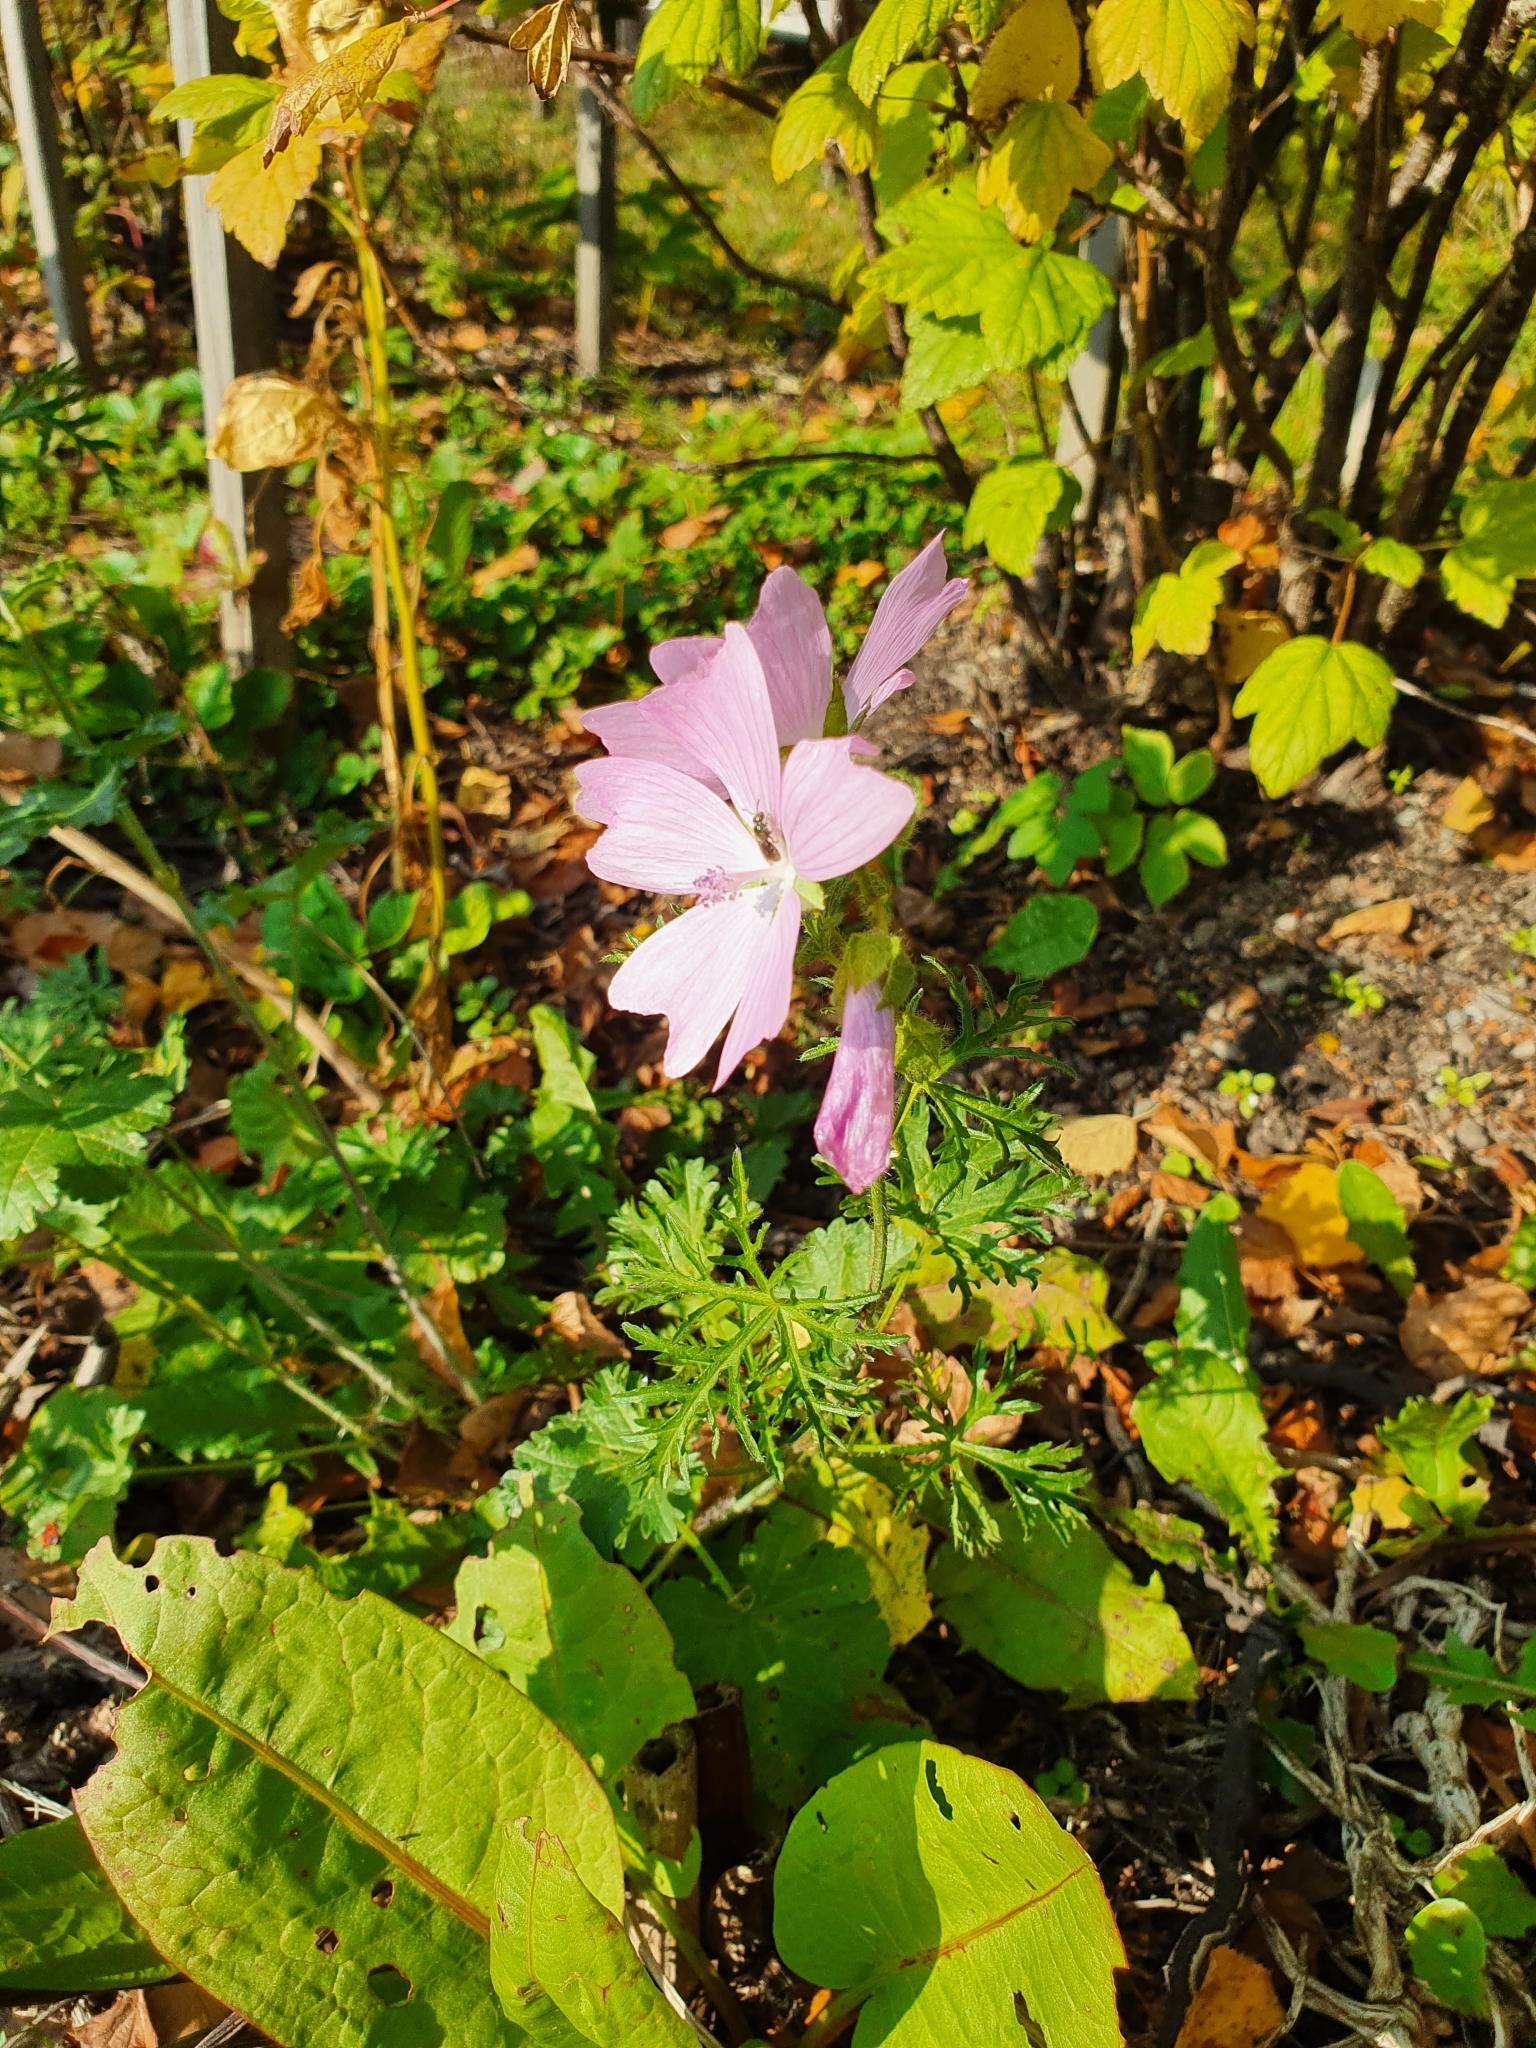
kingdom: Plantae
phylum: Tracheophyta
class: Magnoliopsida
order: Malvales
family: Malvaceae
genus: Malva
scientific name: Malva moschata
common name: Musk mallow
